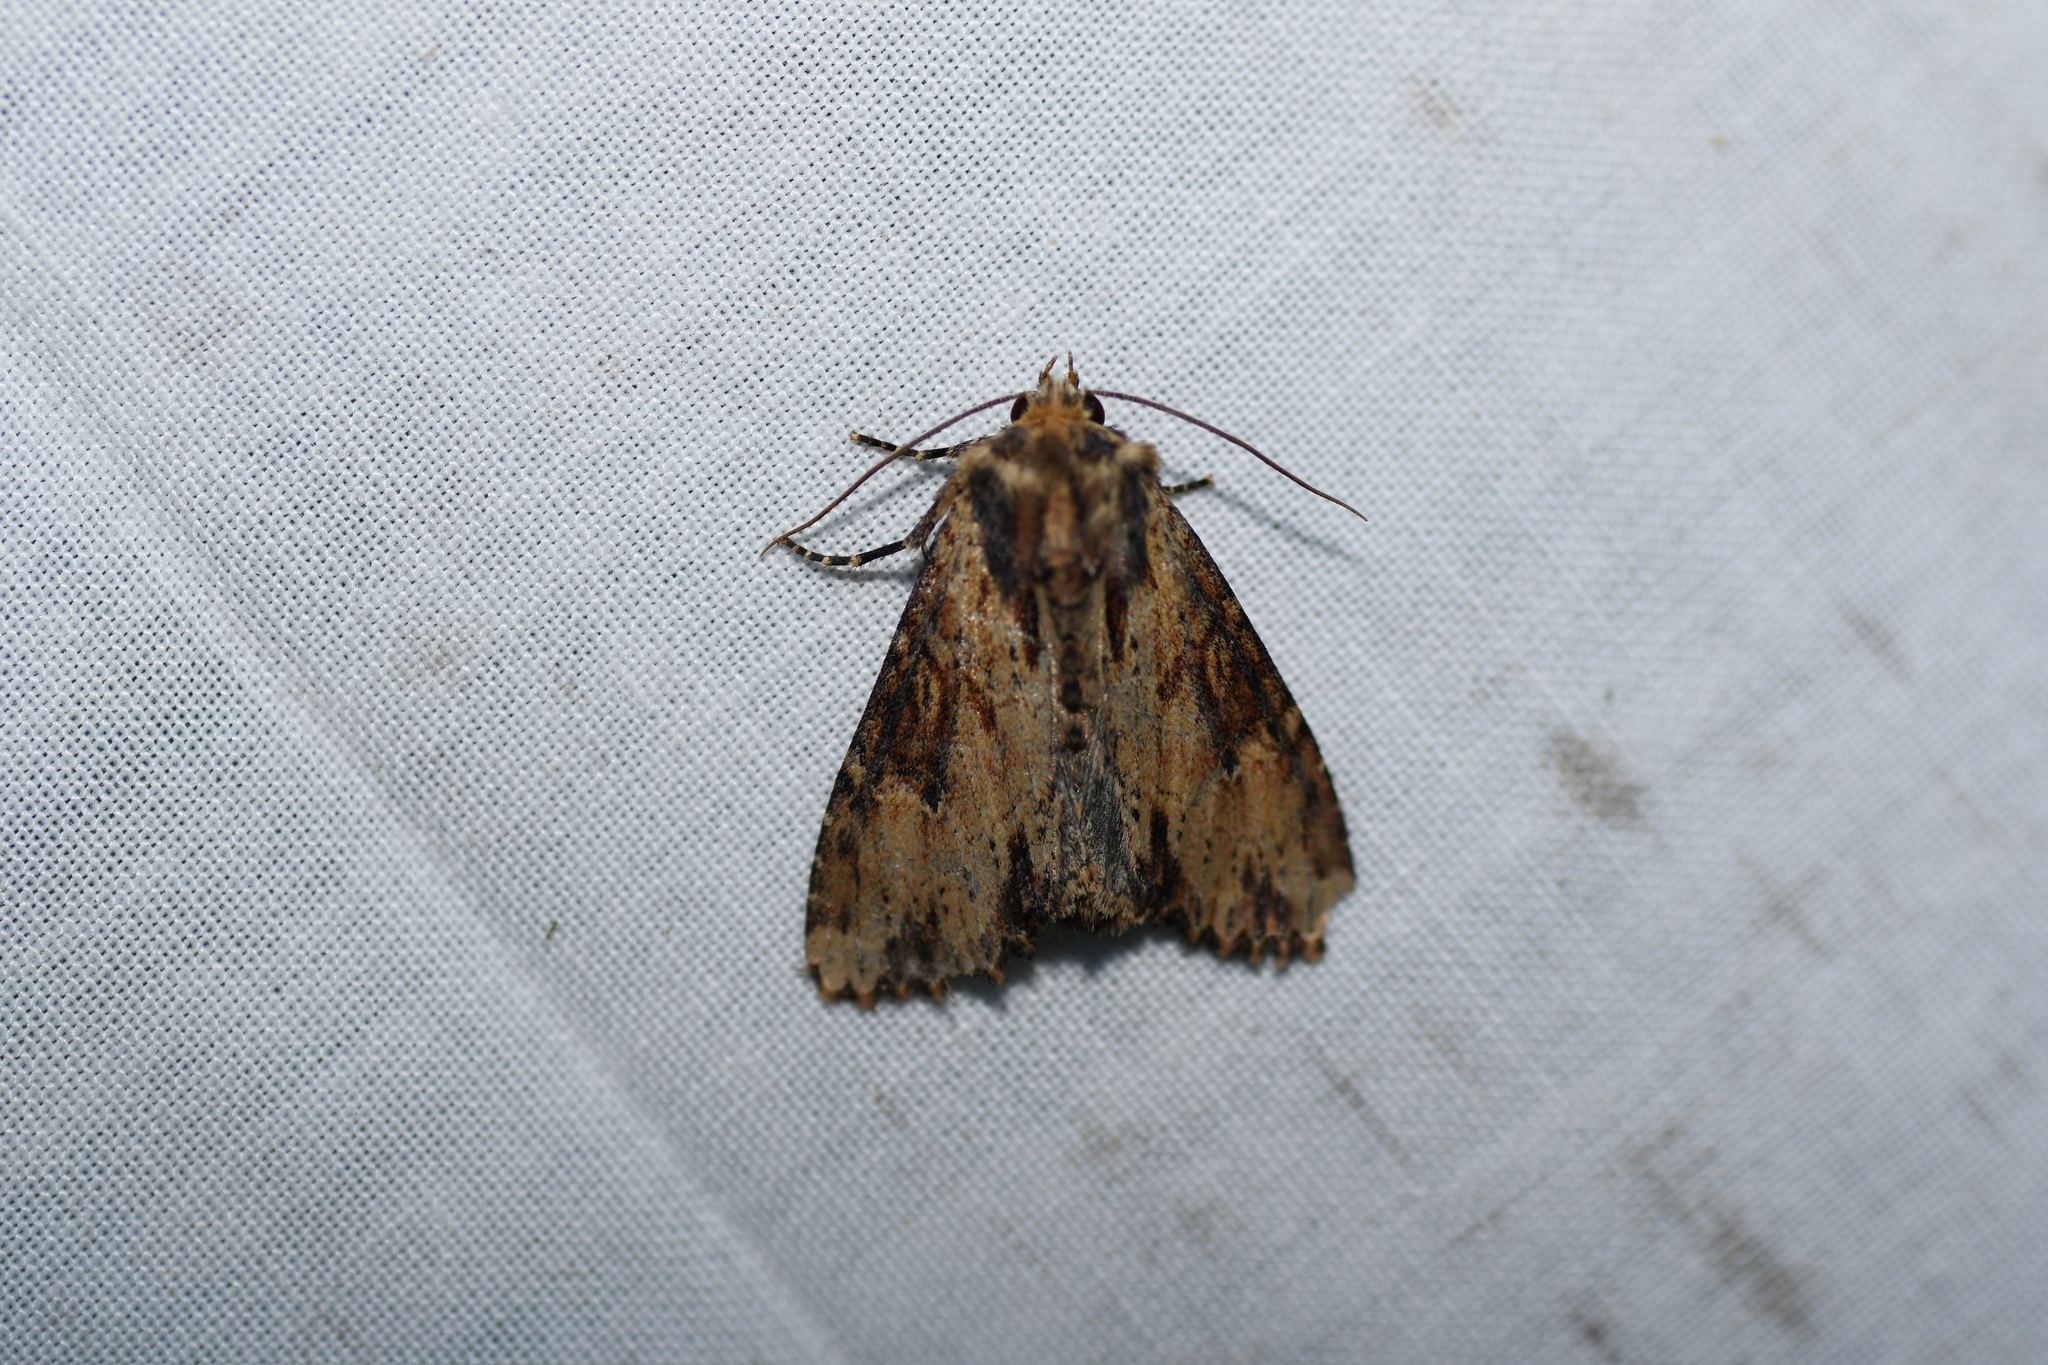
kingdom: Animalia
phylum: Arthropoda
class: Insecta
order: Lepidoptera
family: Noctuidae
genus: Apamea
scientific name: Apamea vultuosa
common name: Airy apamea moth
